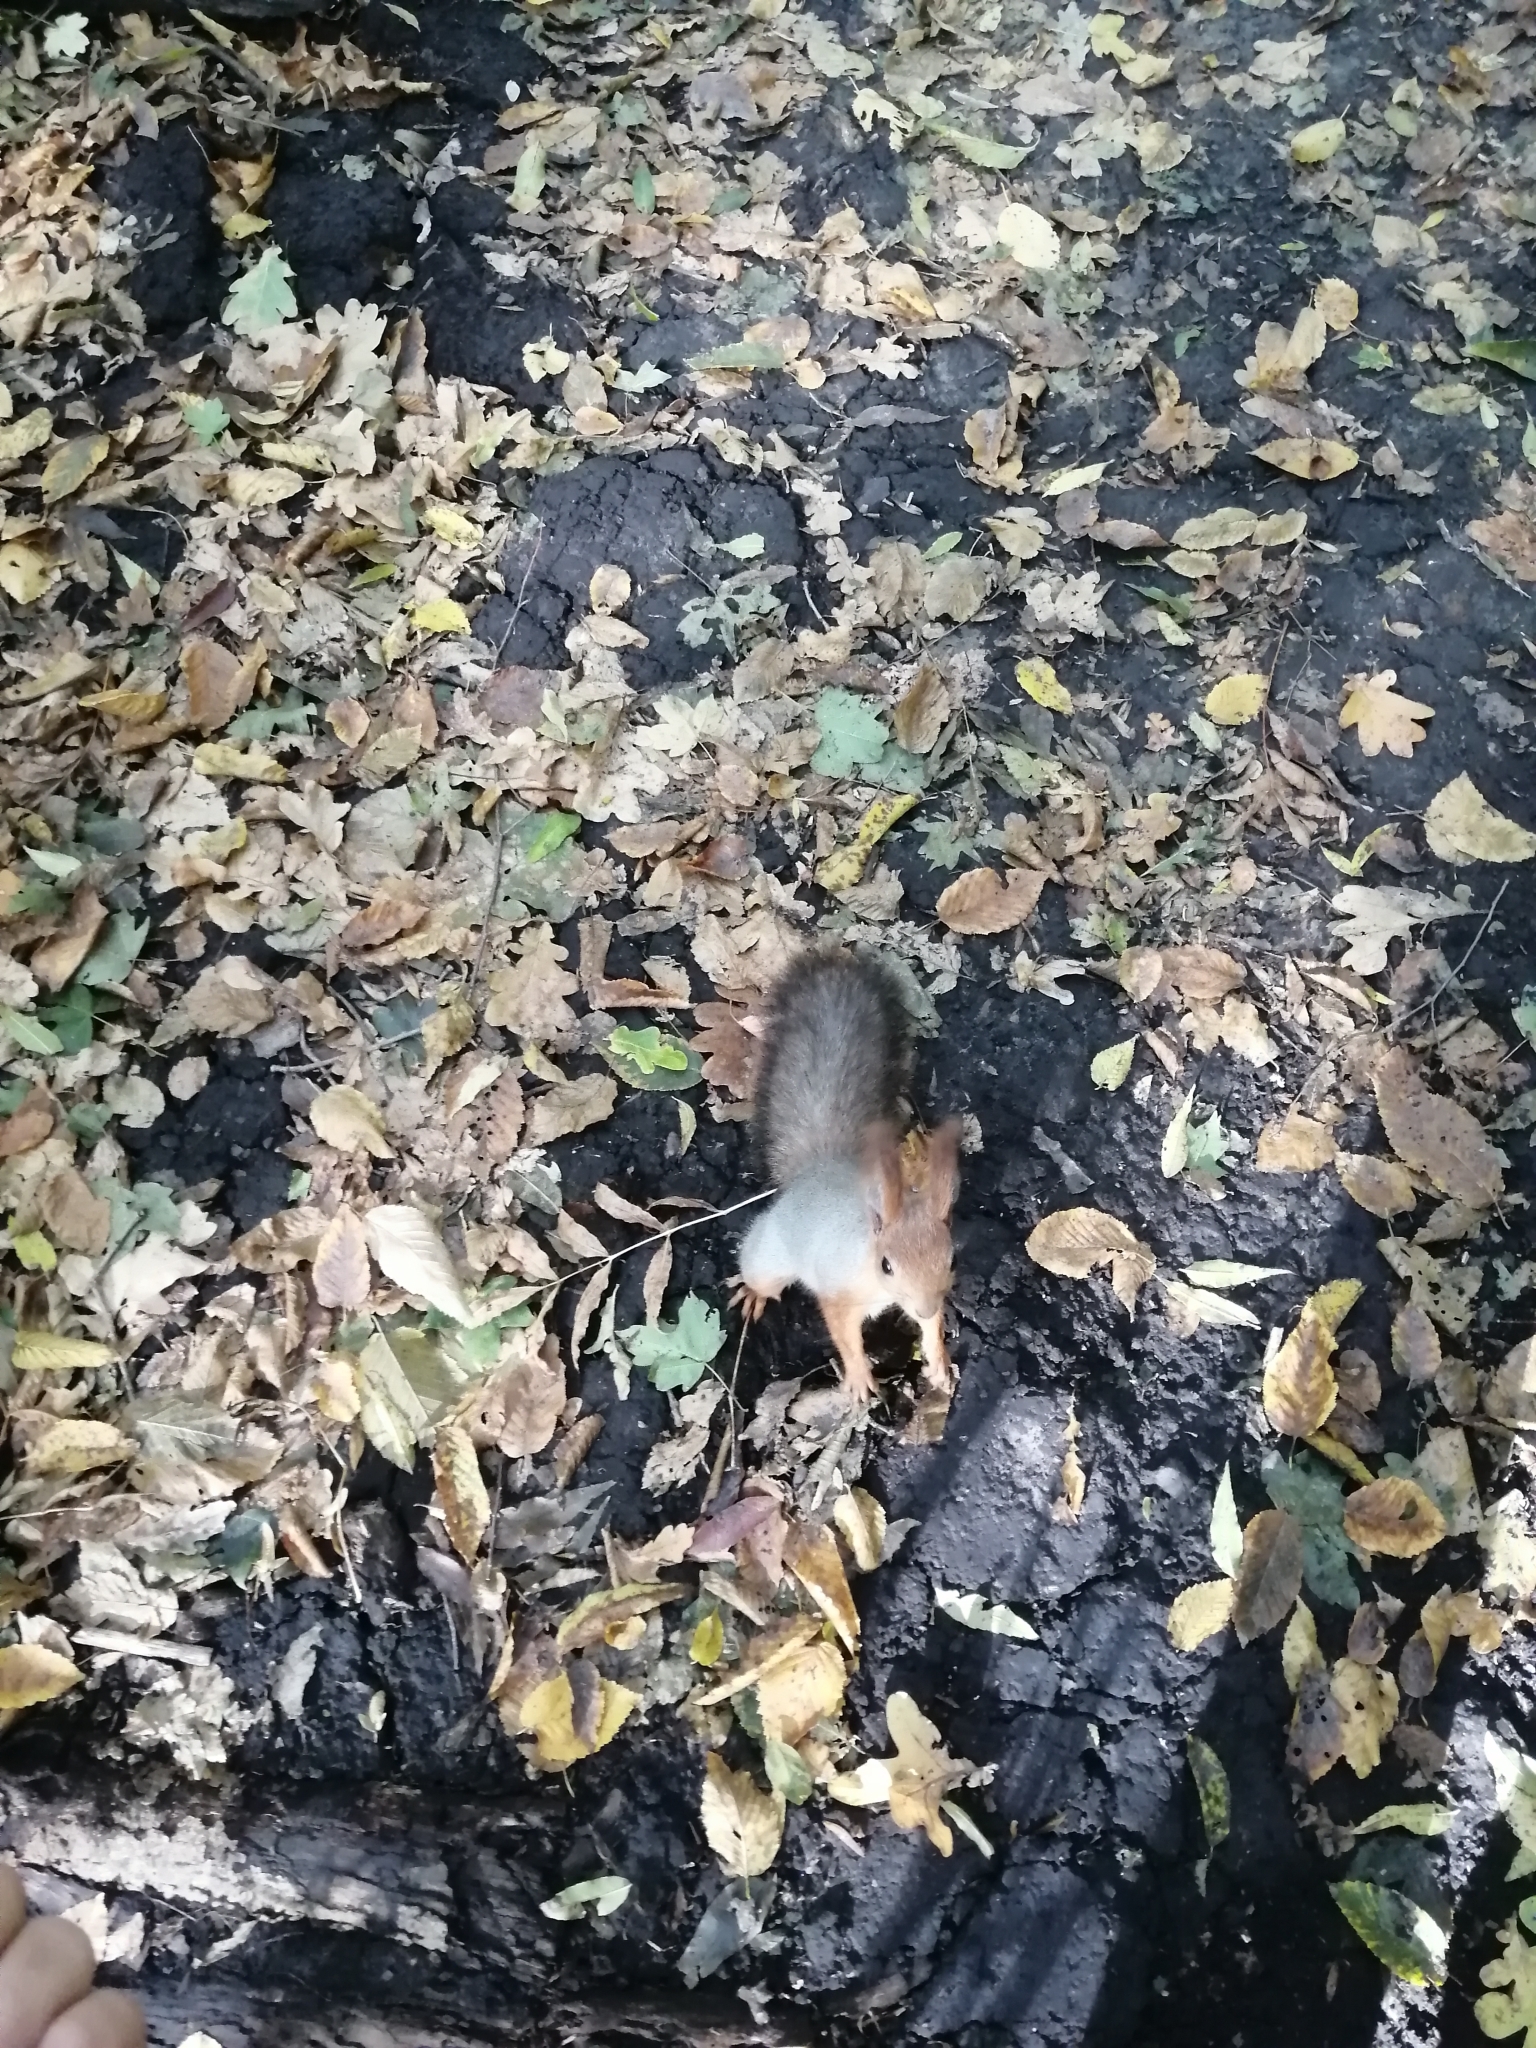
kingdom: Animalia
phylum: Chordata
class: Mammalia
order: Rodentia
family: Sciuridae
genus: Sciurus
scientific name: Sciurus vulgaris
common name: Eurasian red squirrel
